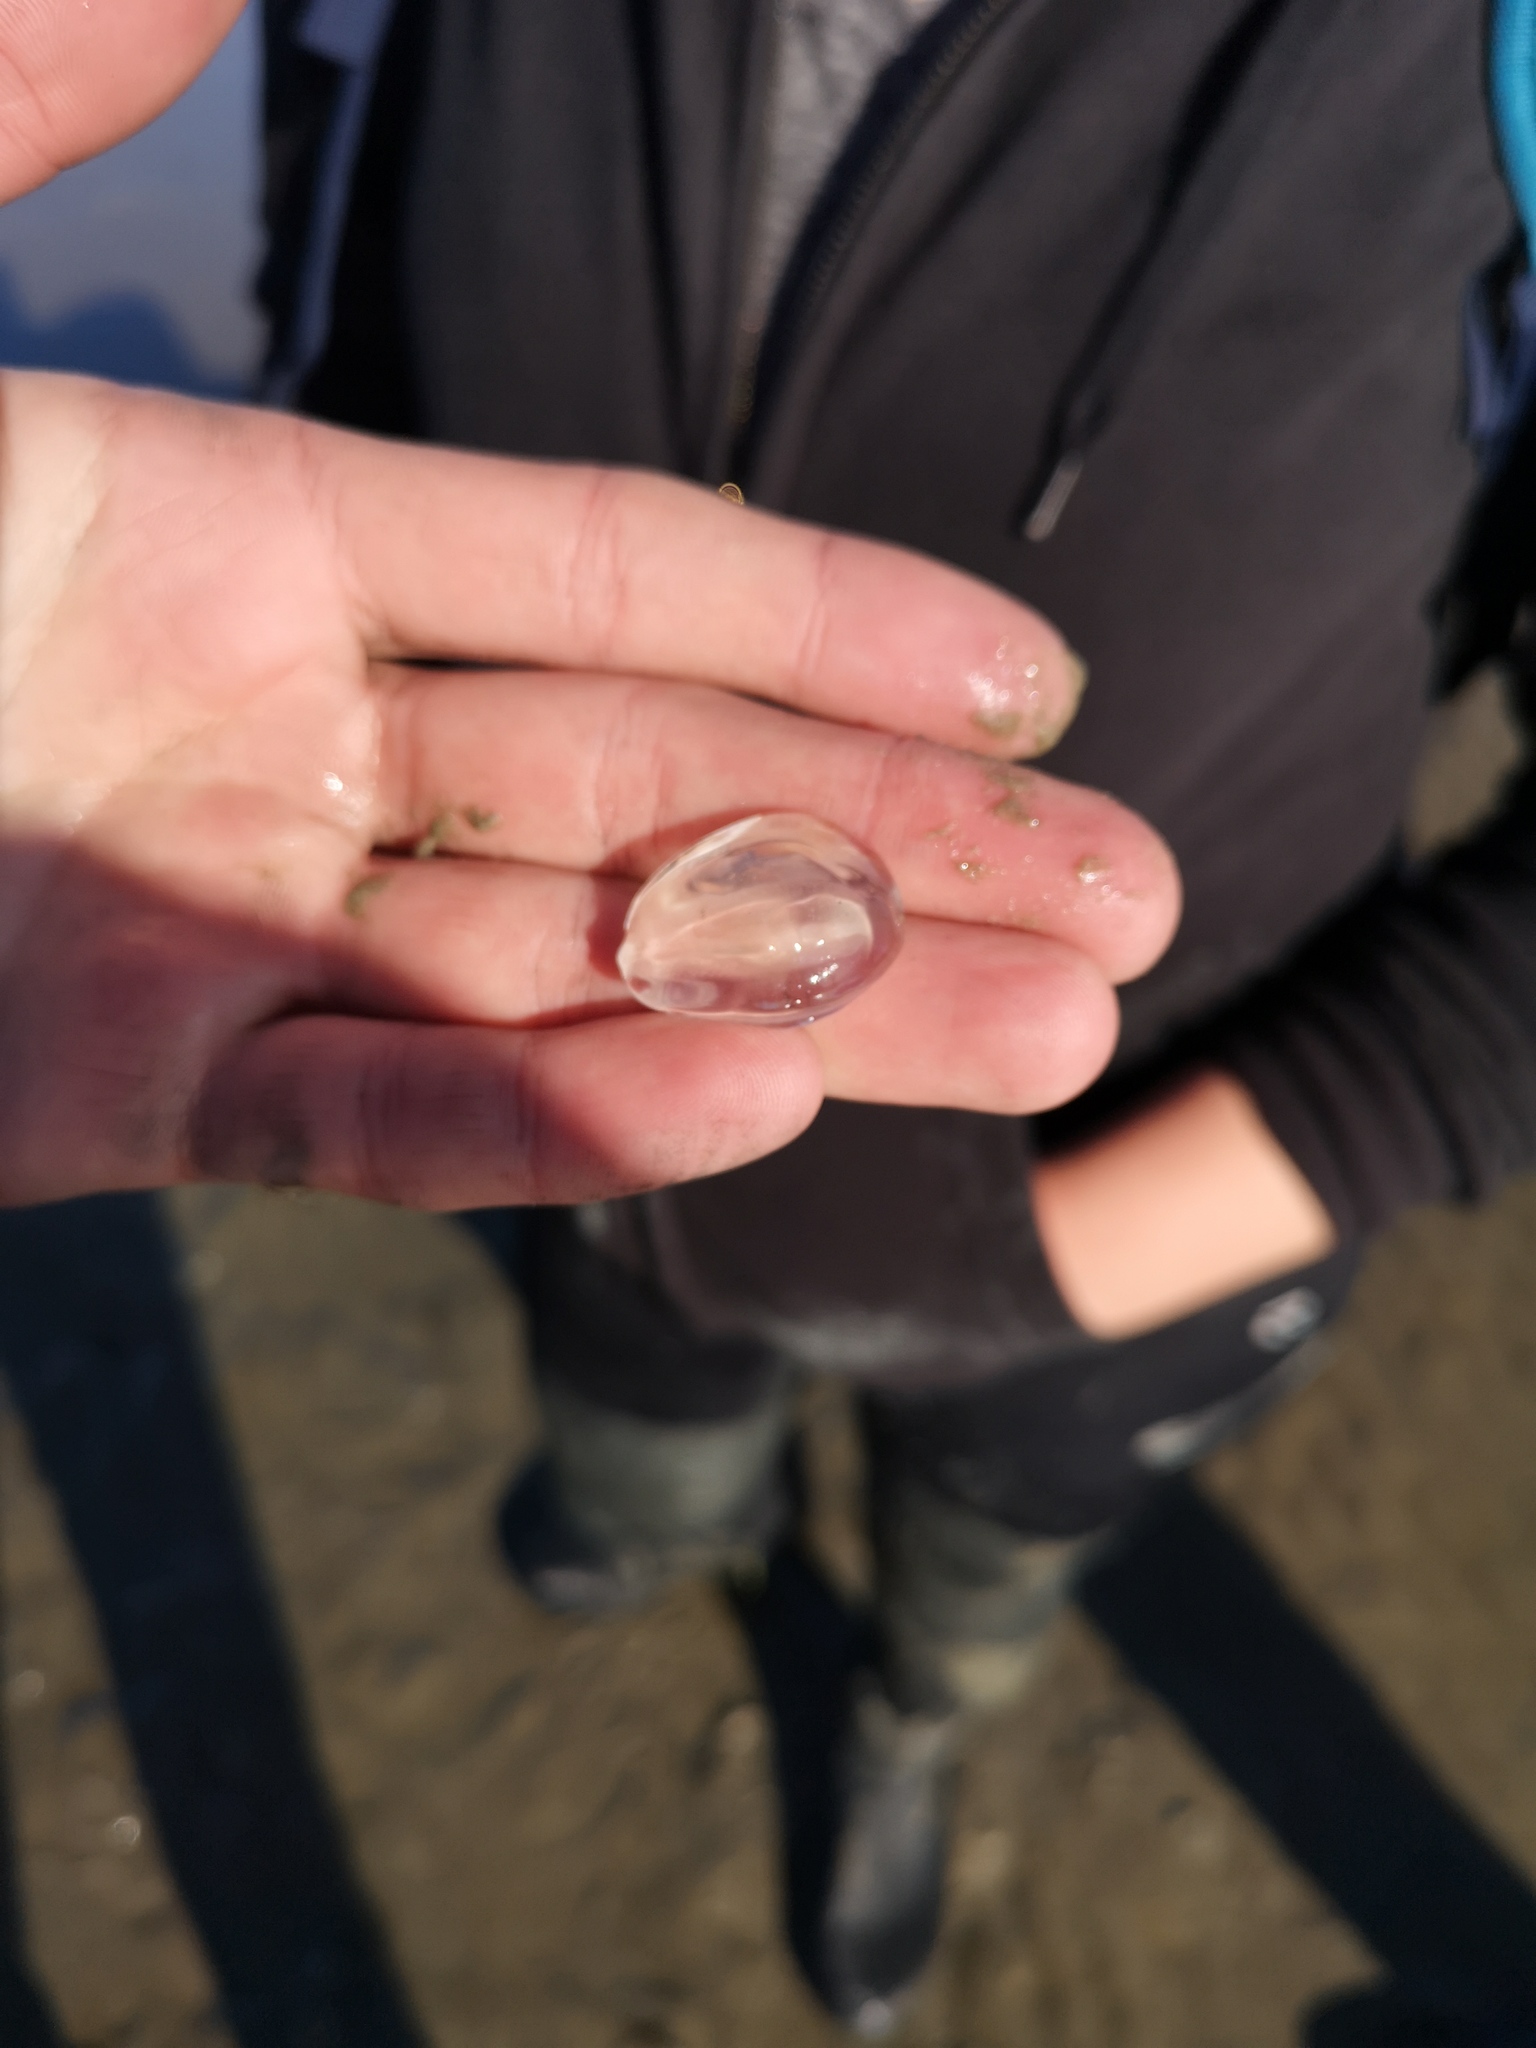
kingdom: Animalia
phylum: Ctenophora
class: Tentaculata
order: Cydippida
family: Pleurobrachiidae
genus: Pleurobrachia
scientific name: Pleurobrachia pileus
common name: Sea gooseberry
